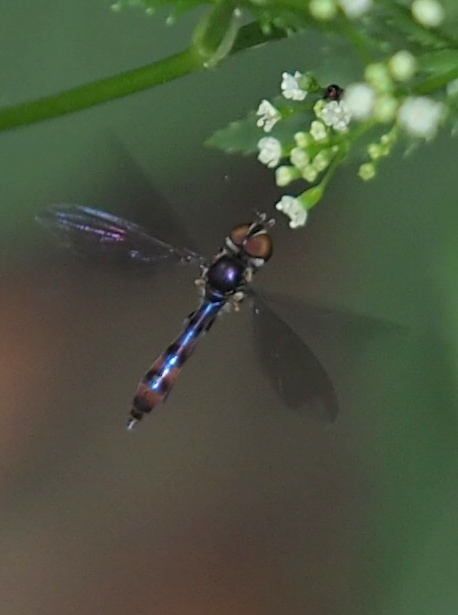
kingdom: Animalia
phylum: Arthropoda
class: Insecta
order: Diptera
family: Syrphidae
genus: Ocyptamus
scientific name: Ocyptamus fuscipennis
